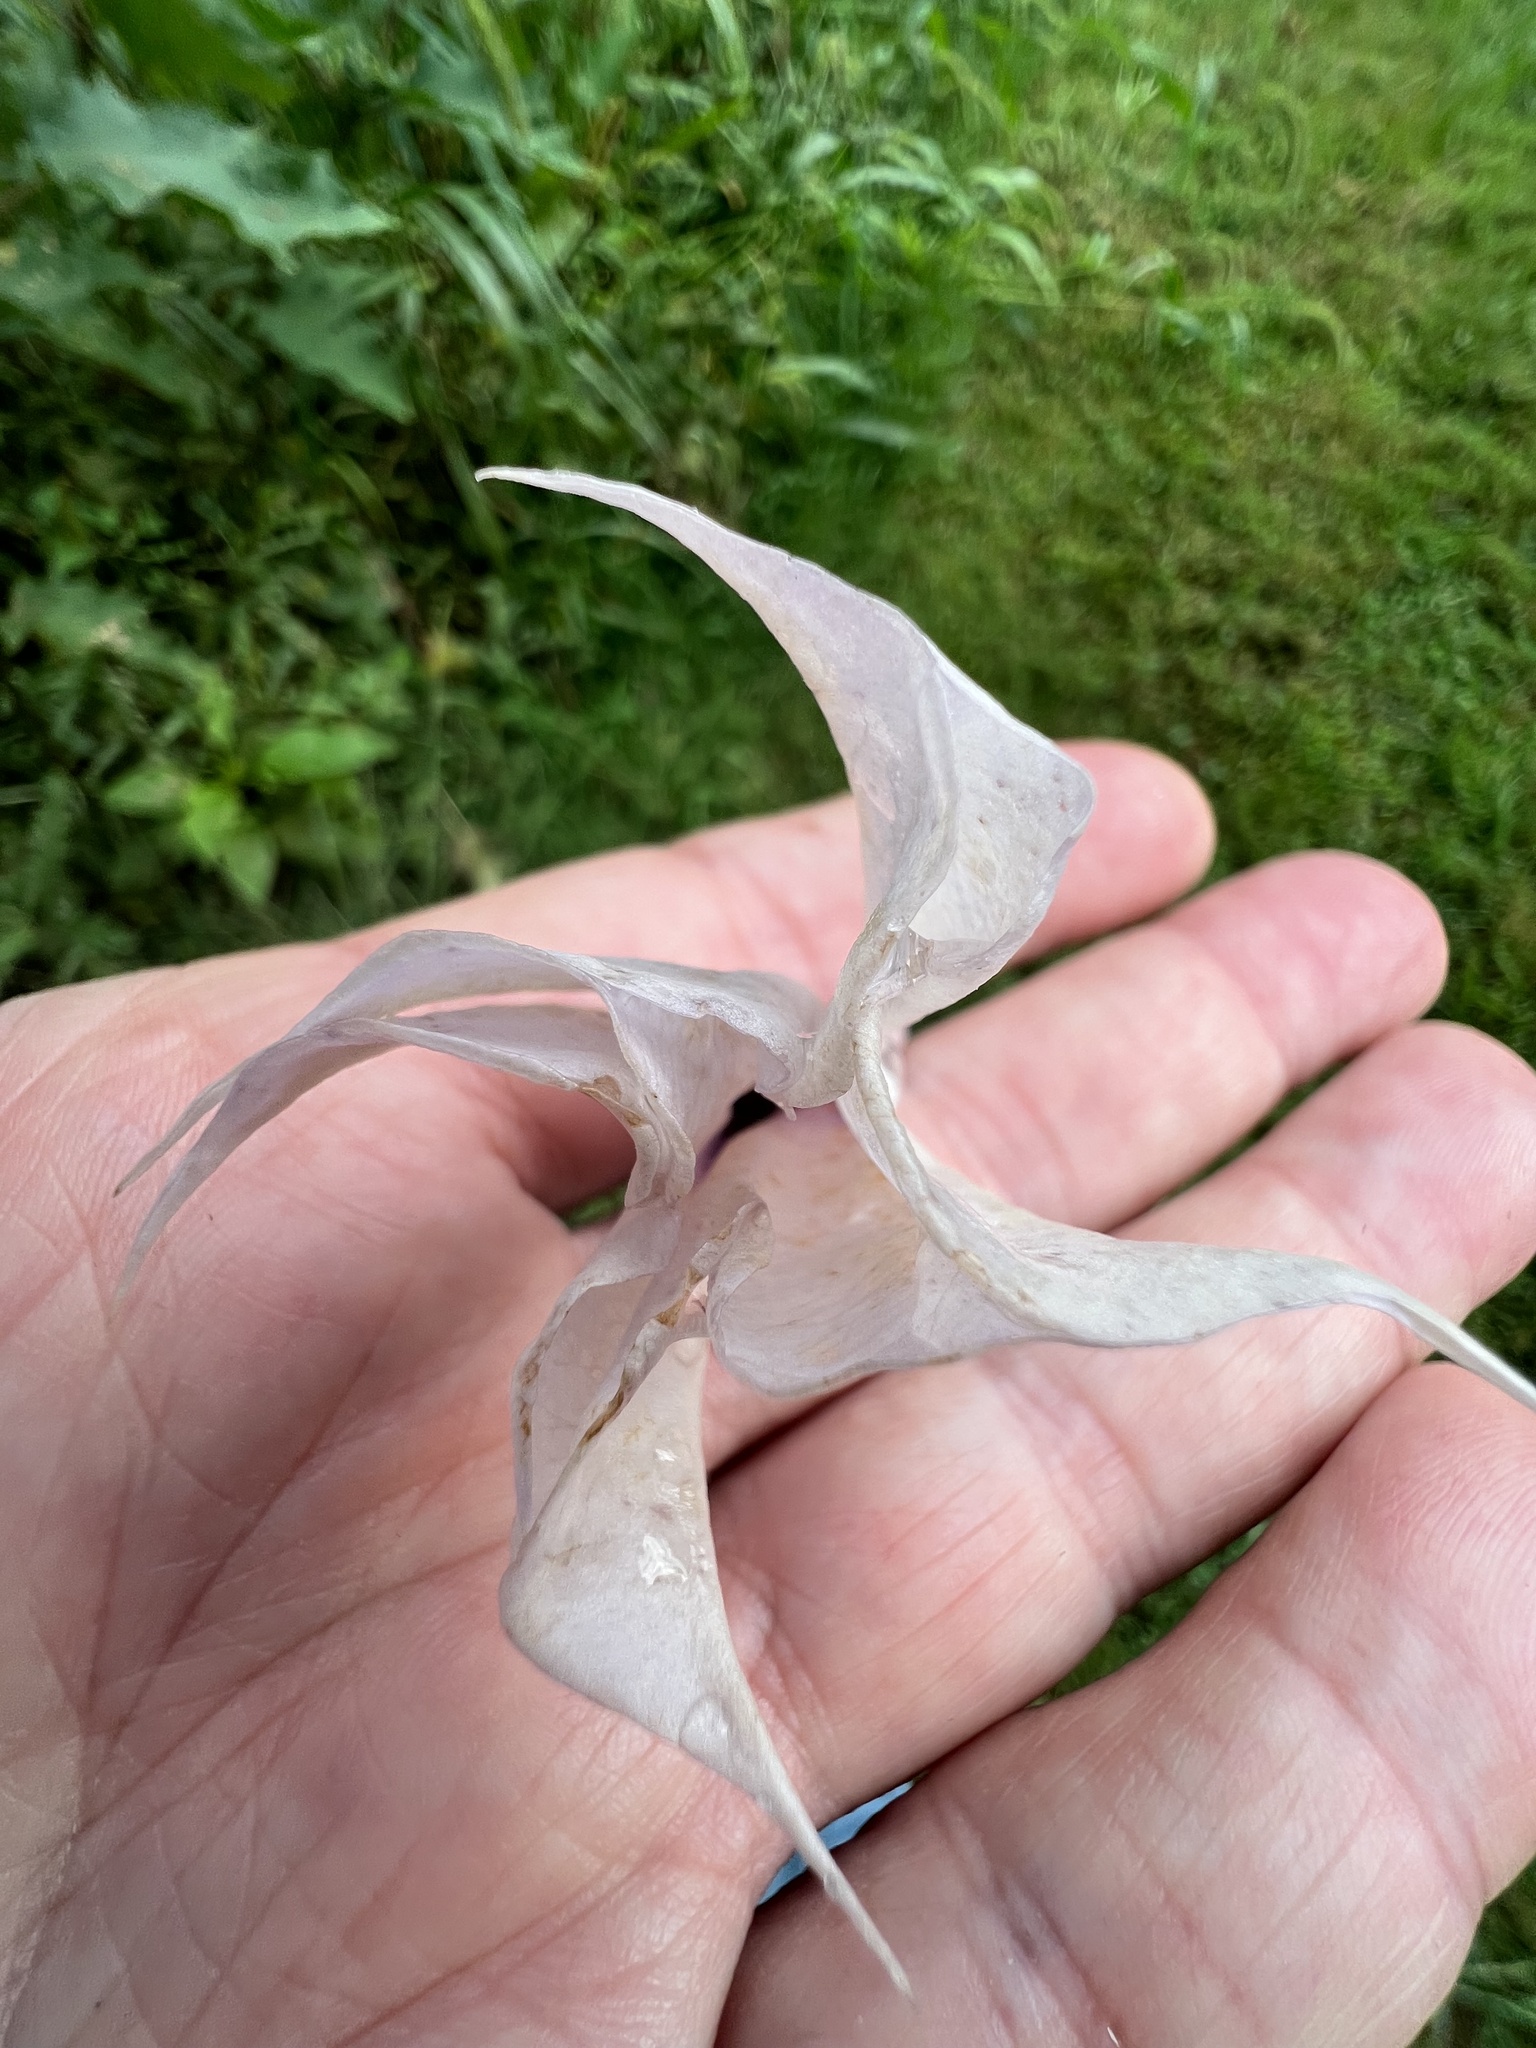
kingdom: Plantae
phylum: Tracheophyta
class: Magnoliopsida
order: Solanales
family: Solanaceae
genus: Datura
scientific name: Datura stramonium
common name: Thorn-apple
